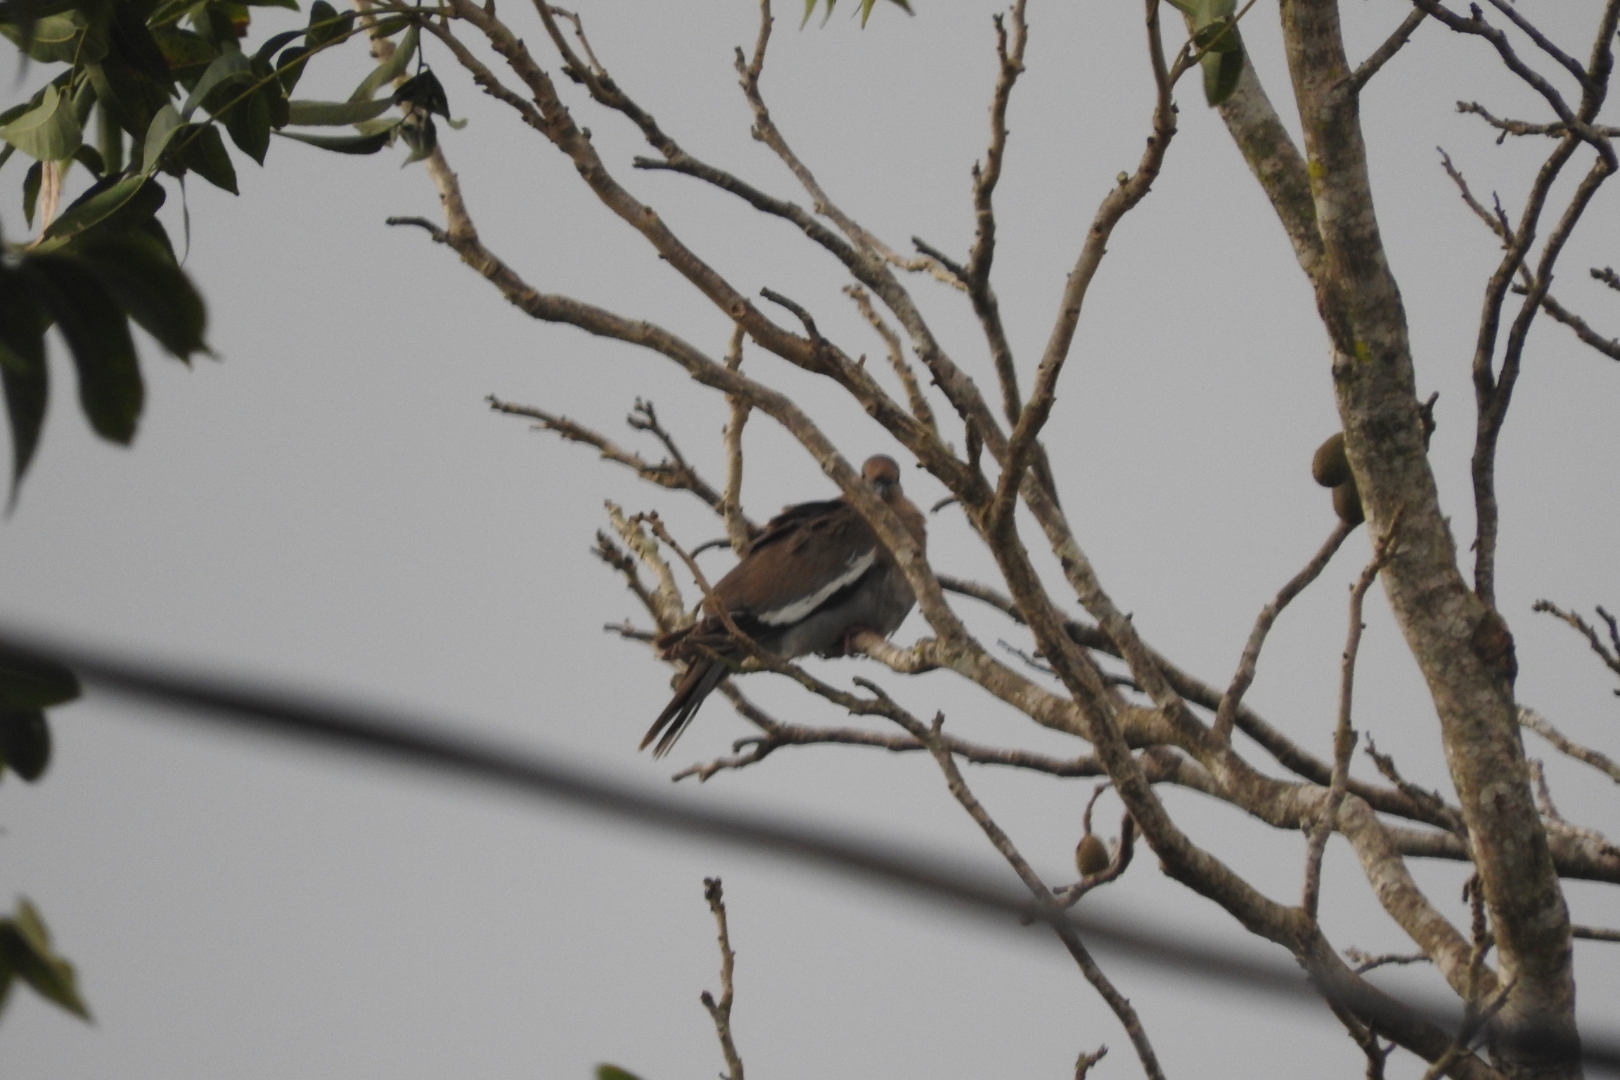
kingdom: Animalia
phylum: Chordata
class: Aves
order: Columbiformes
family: Columbidae
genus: Zenaida
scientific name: Zenaida asiatica
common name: White-winged dove
